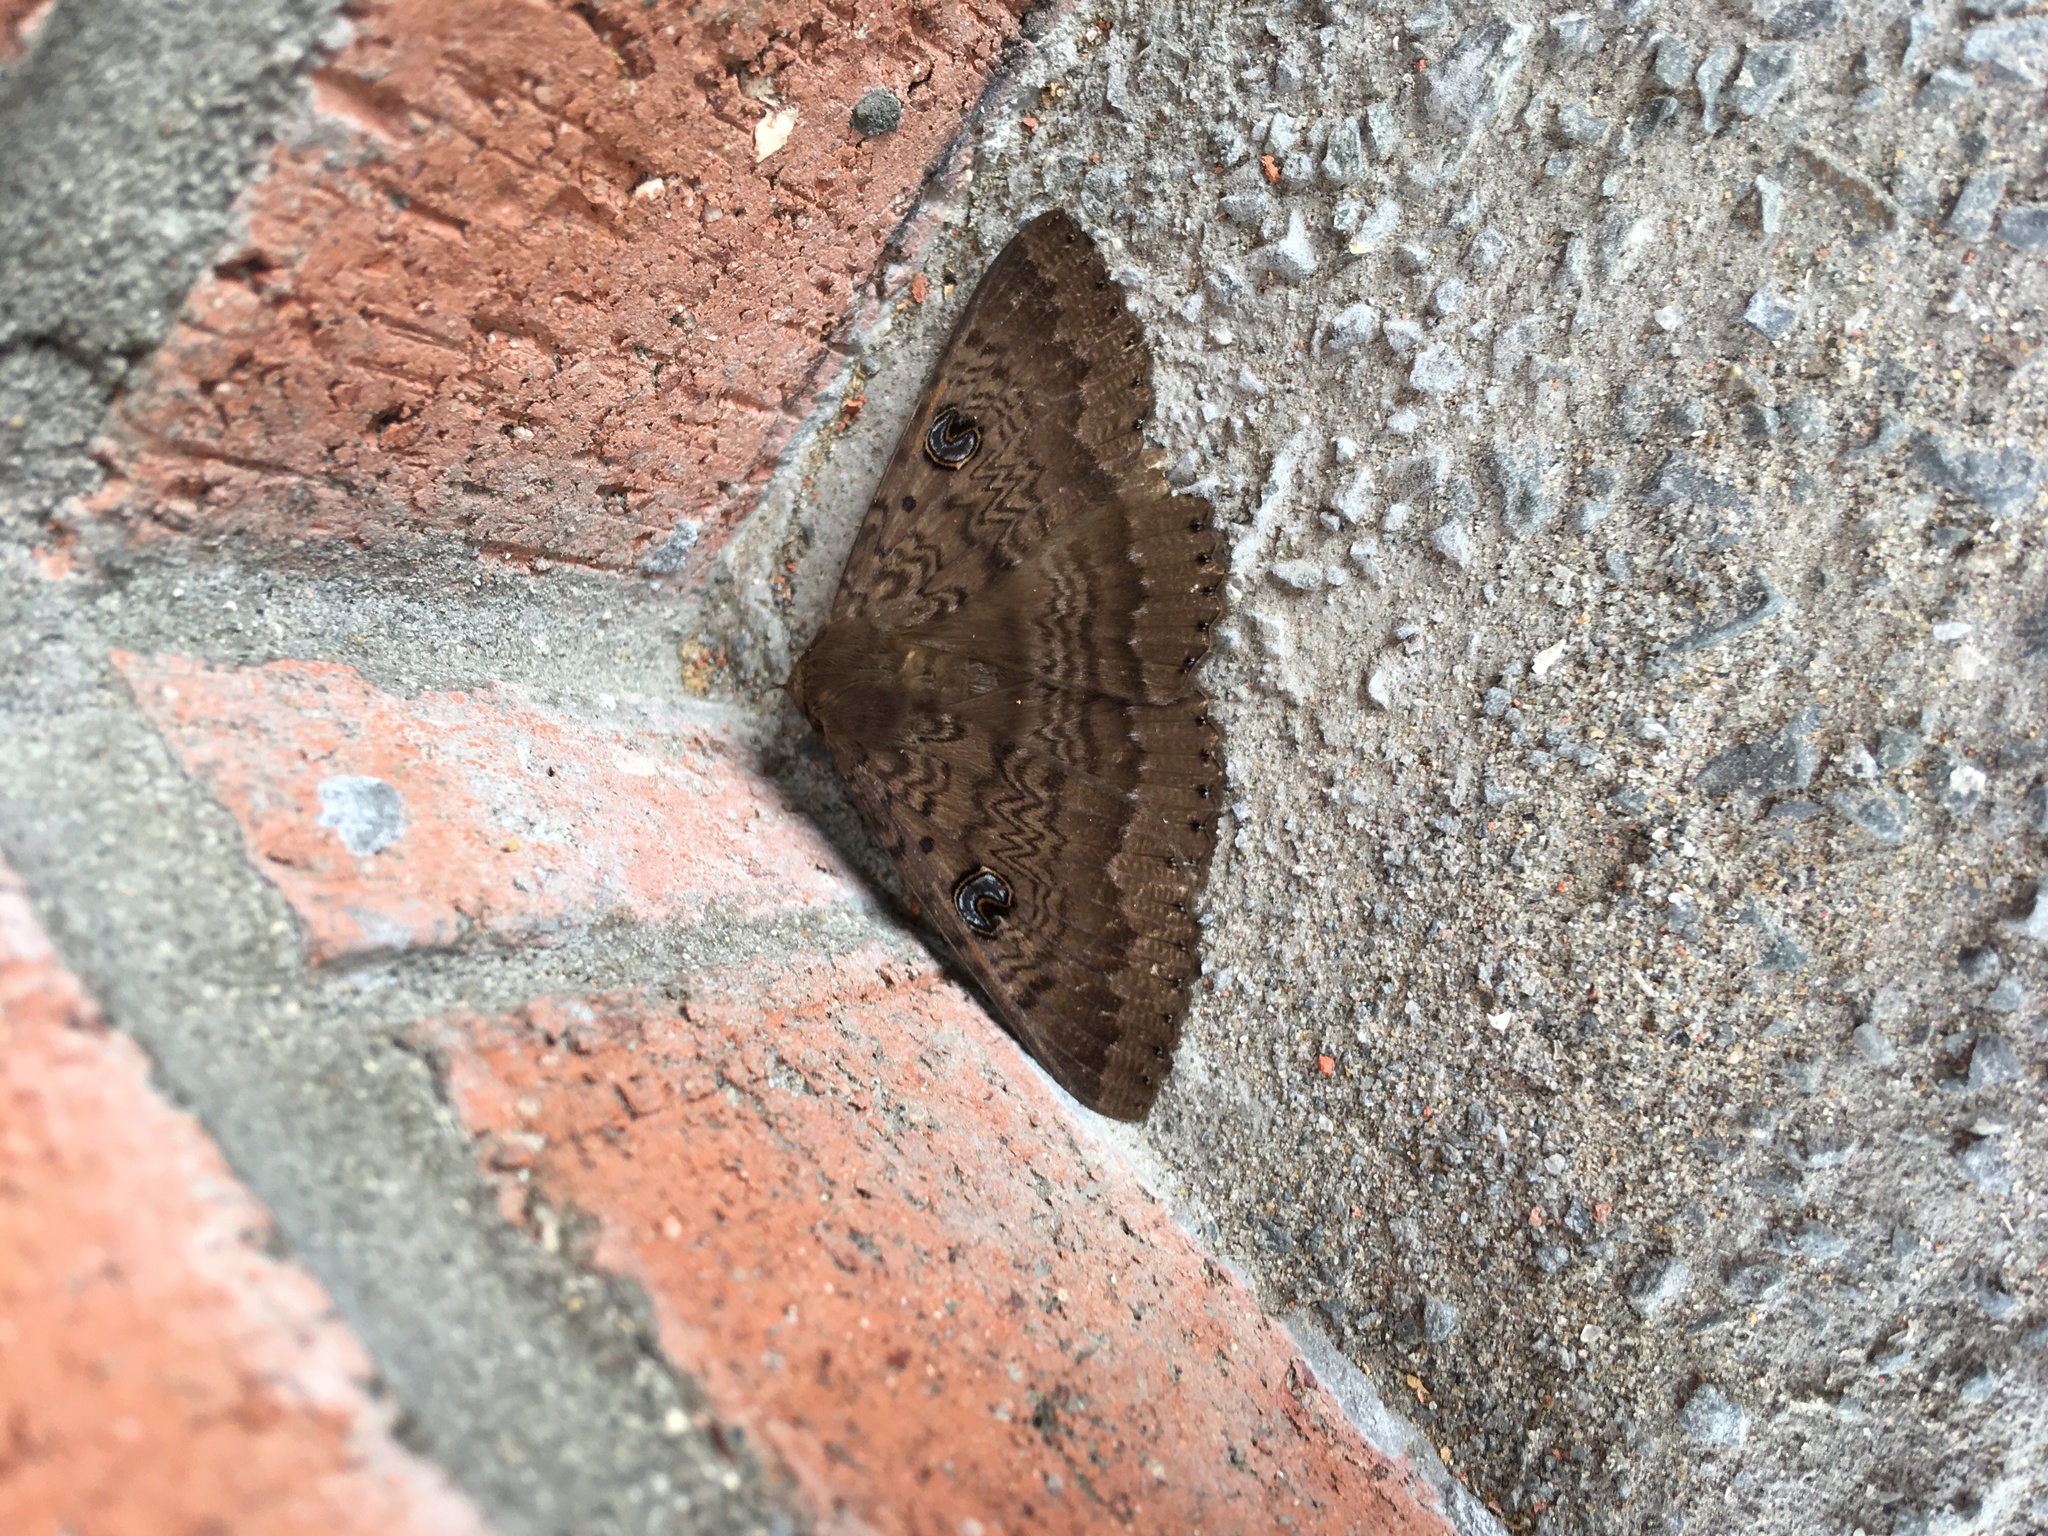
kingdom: Animalia
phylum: Arthropoda
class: Insecta
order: Lepidoptera
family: Erebidae
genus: Dasypodia
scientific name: Dasypodia cymatodes
